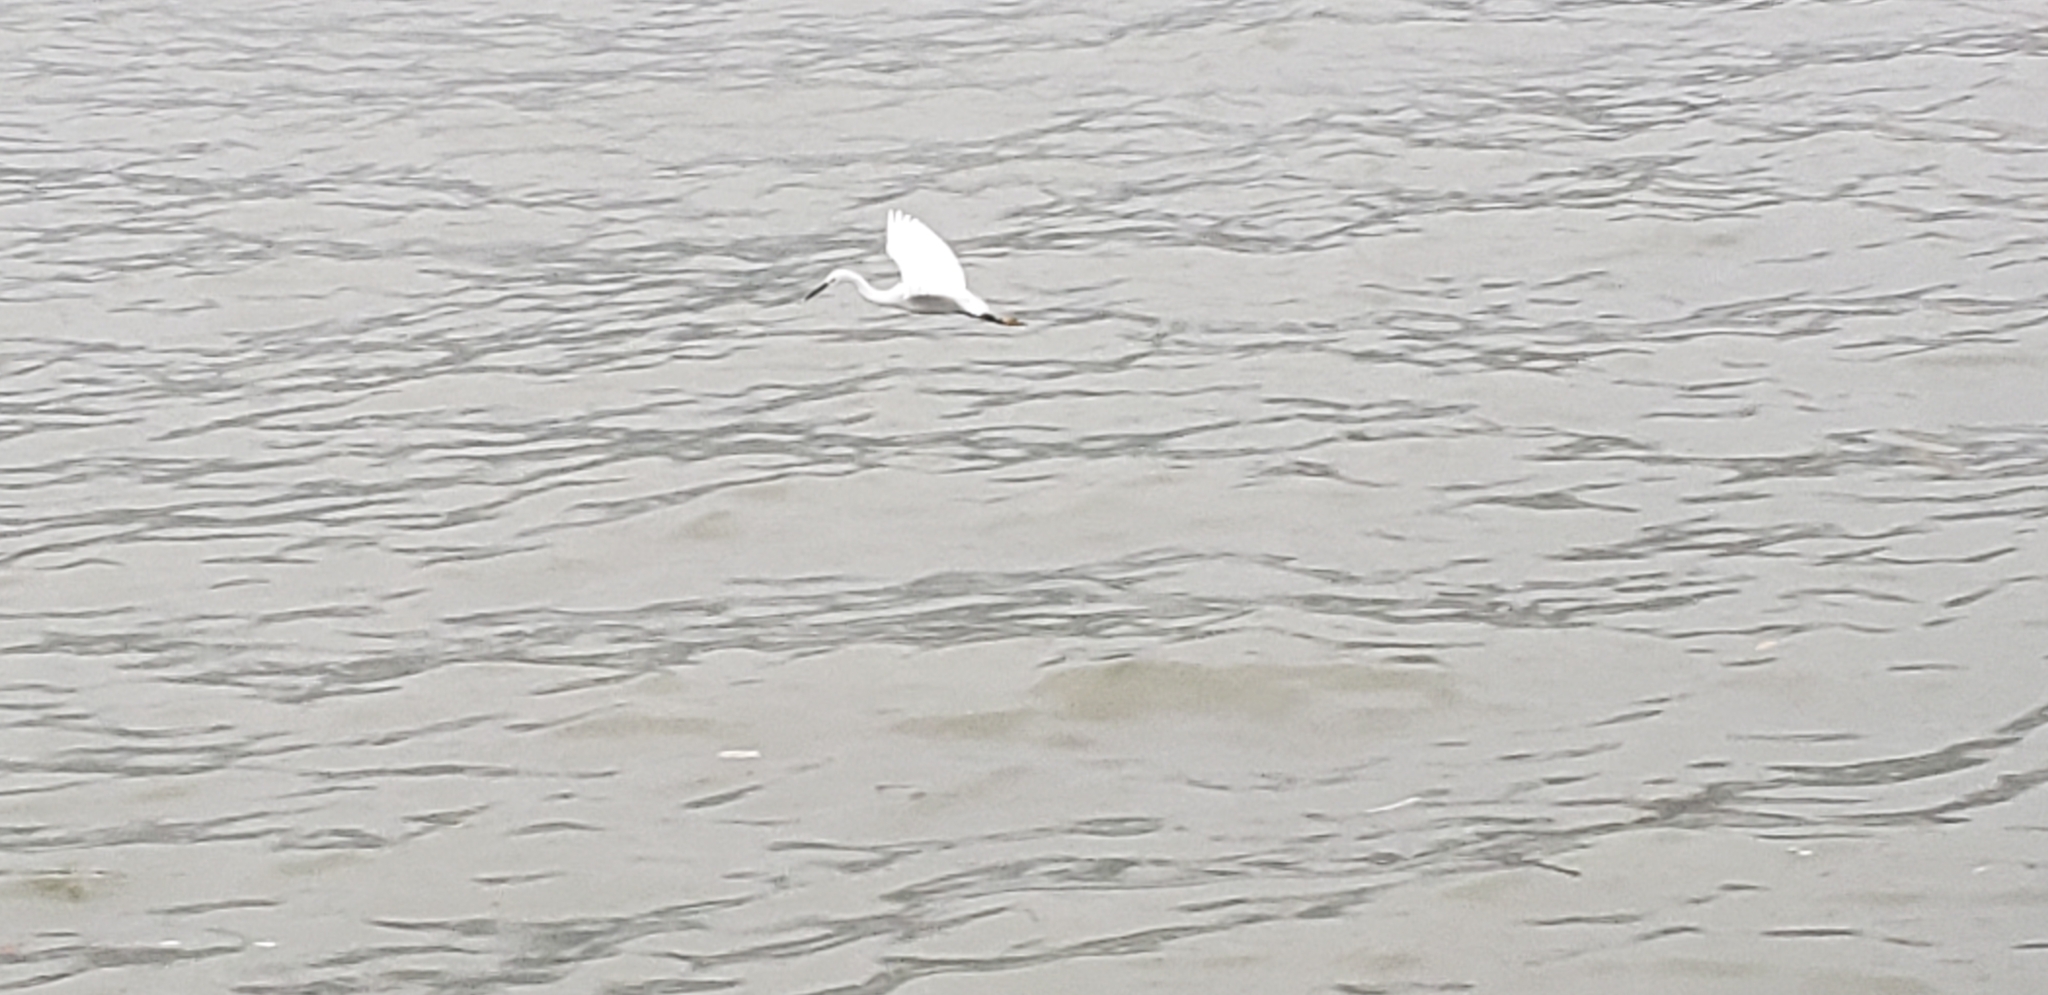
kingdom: Animalia
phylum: Chordata
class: Aves
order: Pelecaniformes
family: Ardeidae
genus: Egretta
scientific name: Egretta garzetta
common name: Little egret
